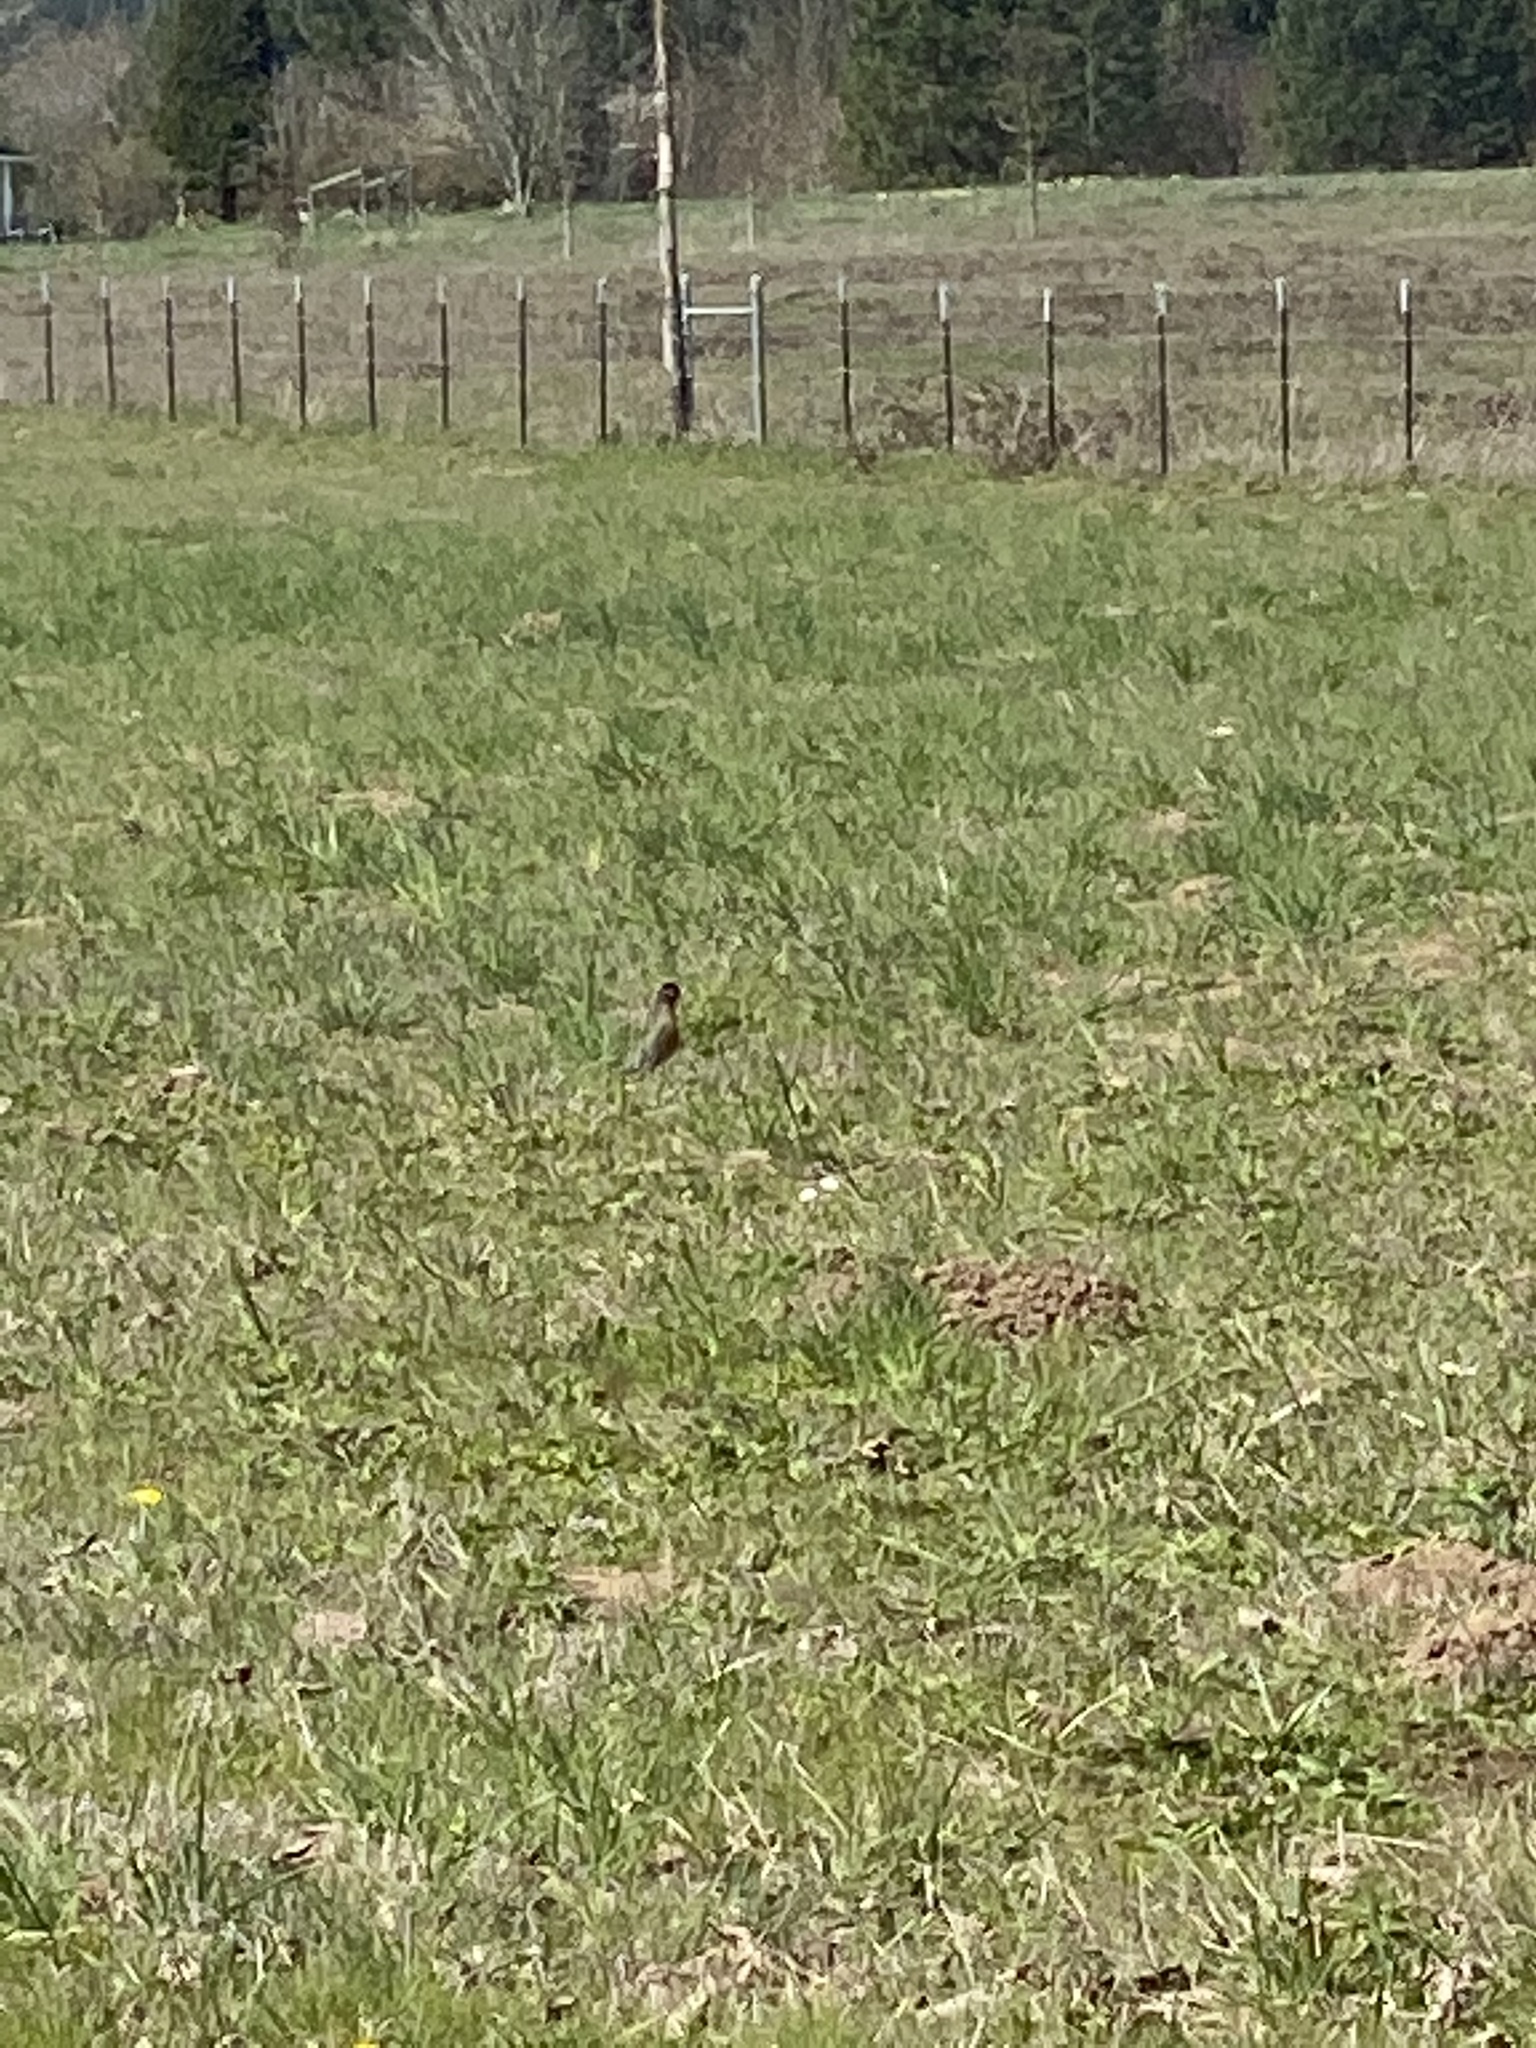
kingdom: Animalia
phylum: Chordata
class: Aves
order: Passeriformes
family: Turdidae
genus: Turdus
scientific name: Turdus migratorius
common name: American robin
